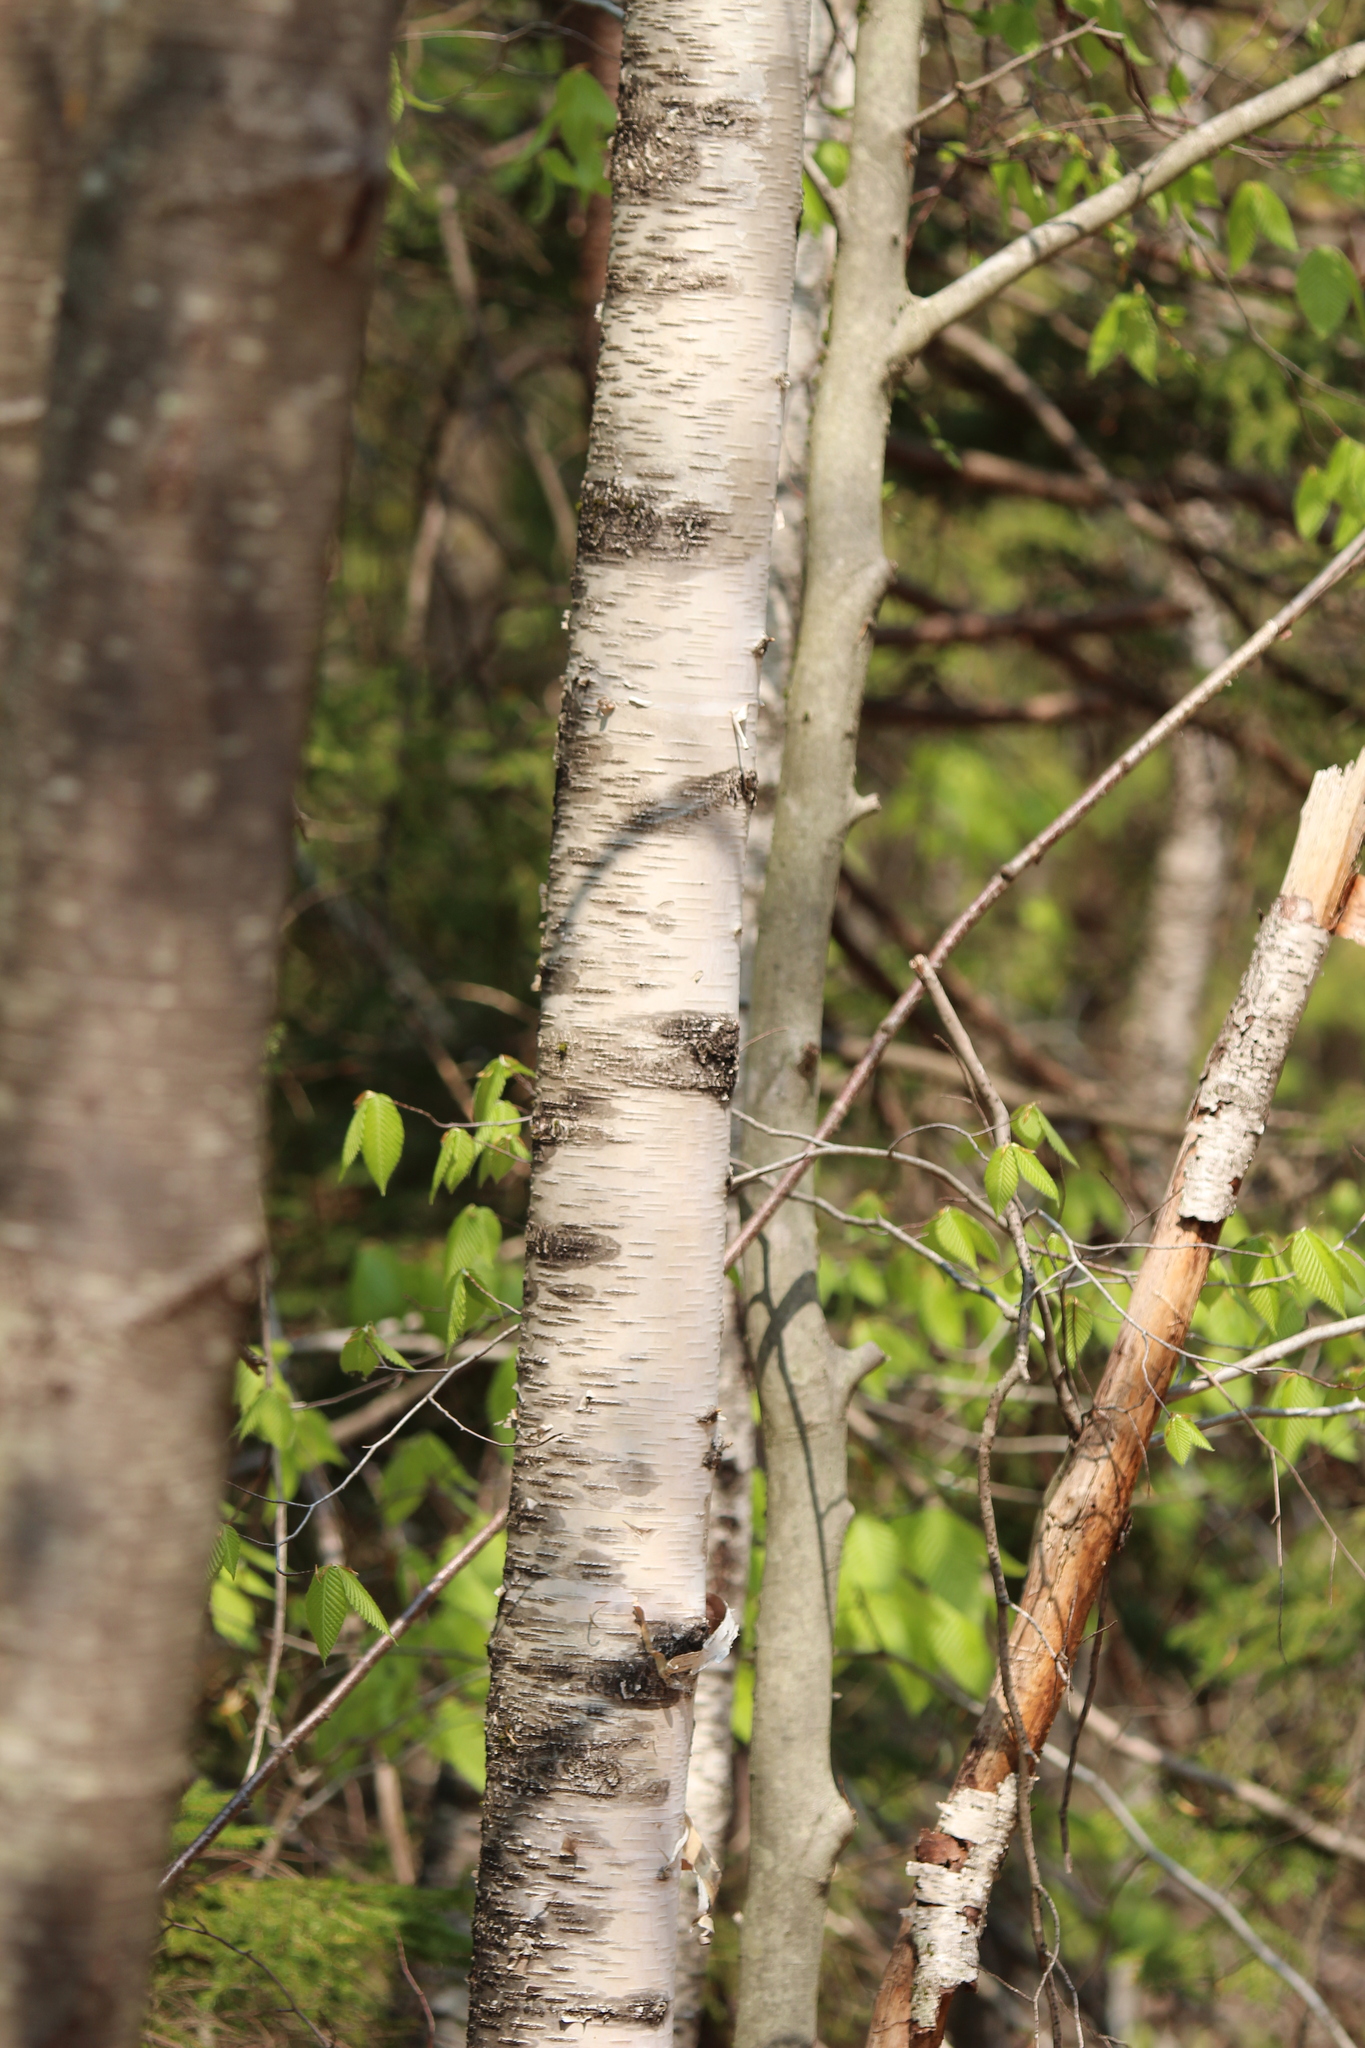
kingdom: Plantae
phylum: Tracheophyta
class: Magnoliopsida
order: Fagales
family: Betulaceae
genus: Betula
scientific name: Betula papyrifera
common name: Paper birch
